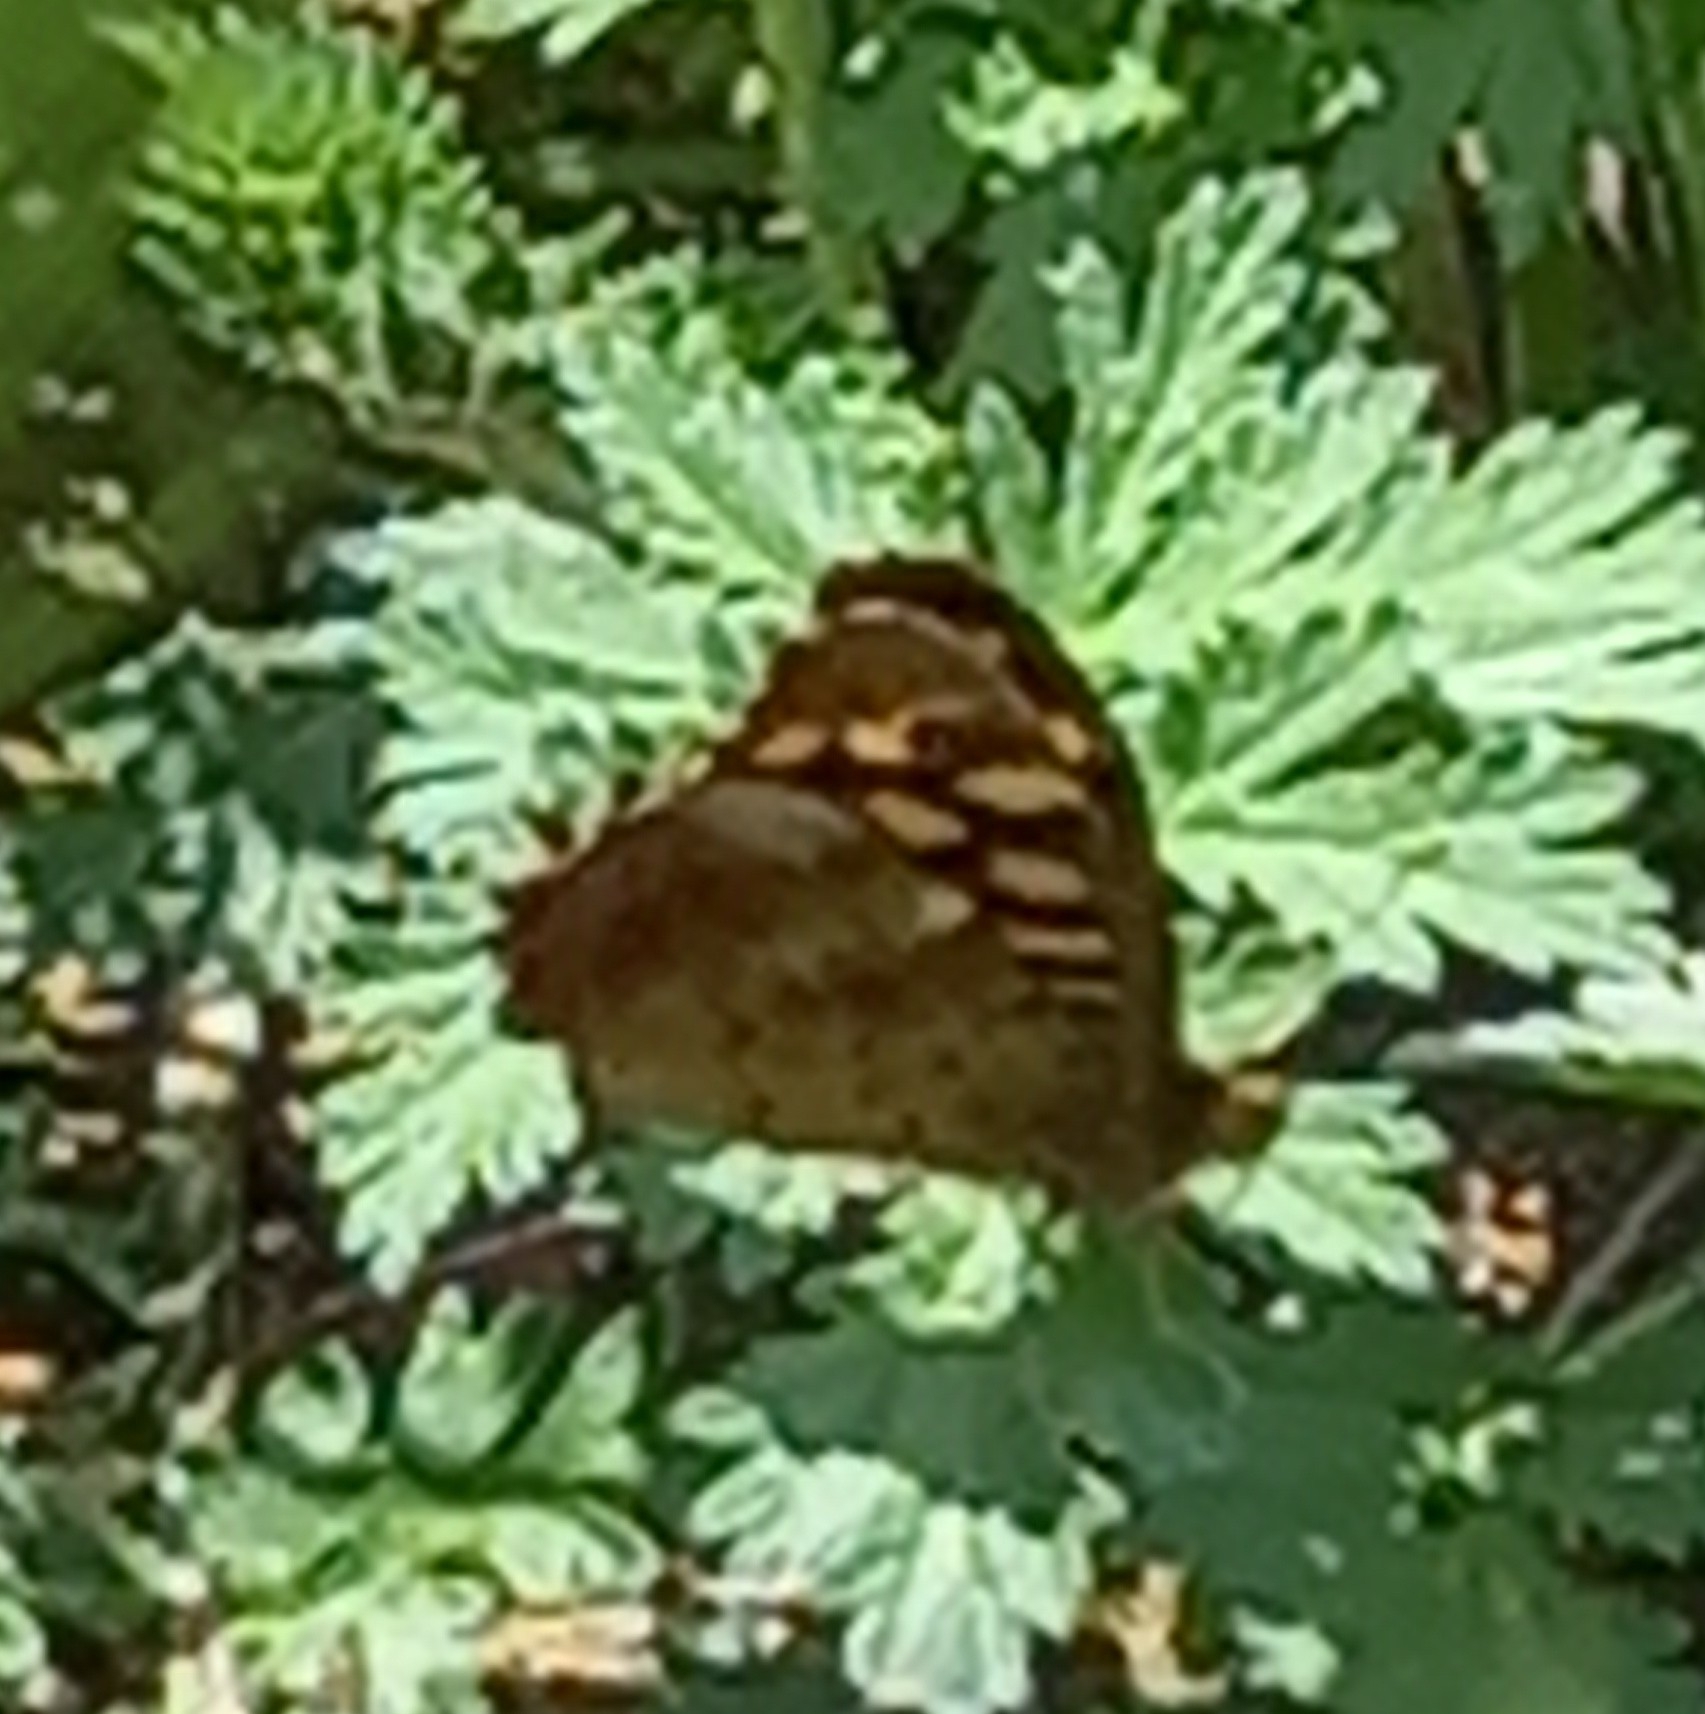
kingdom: Animalia
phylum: Arthropoda
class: Insecta
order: Lepidoptera
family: Nymphalidae
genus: Pararge
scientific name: Pararge aegeria
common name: Speckled wood
